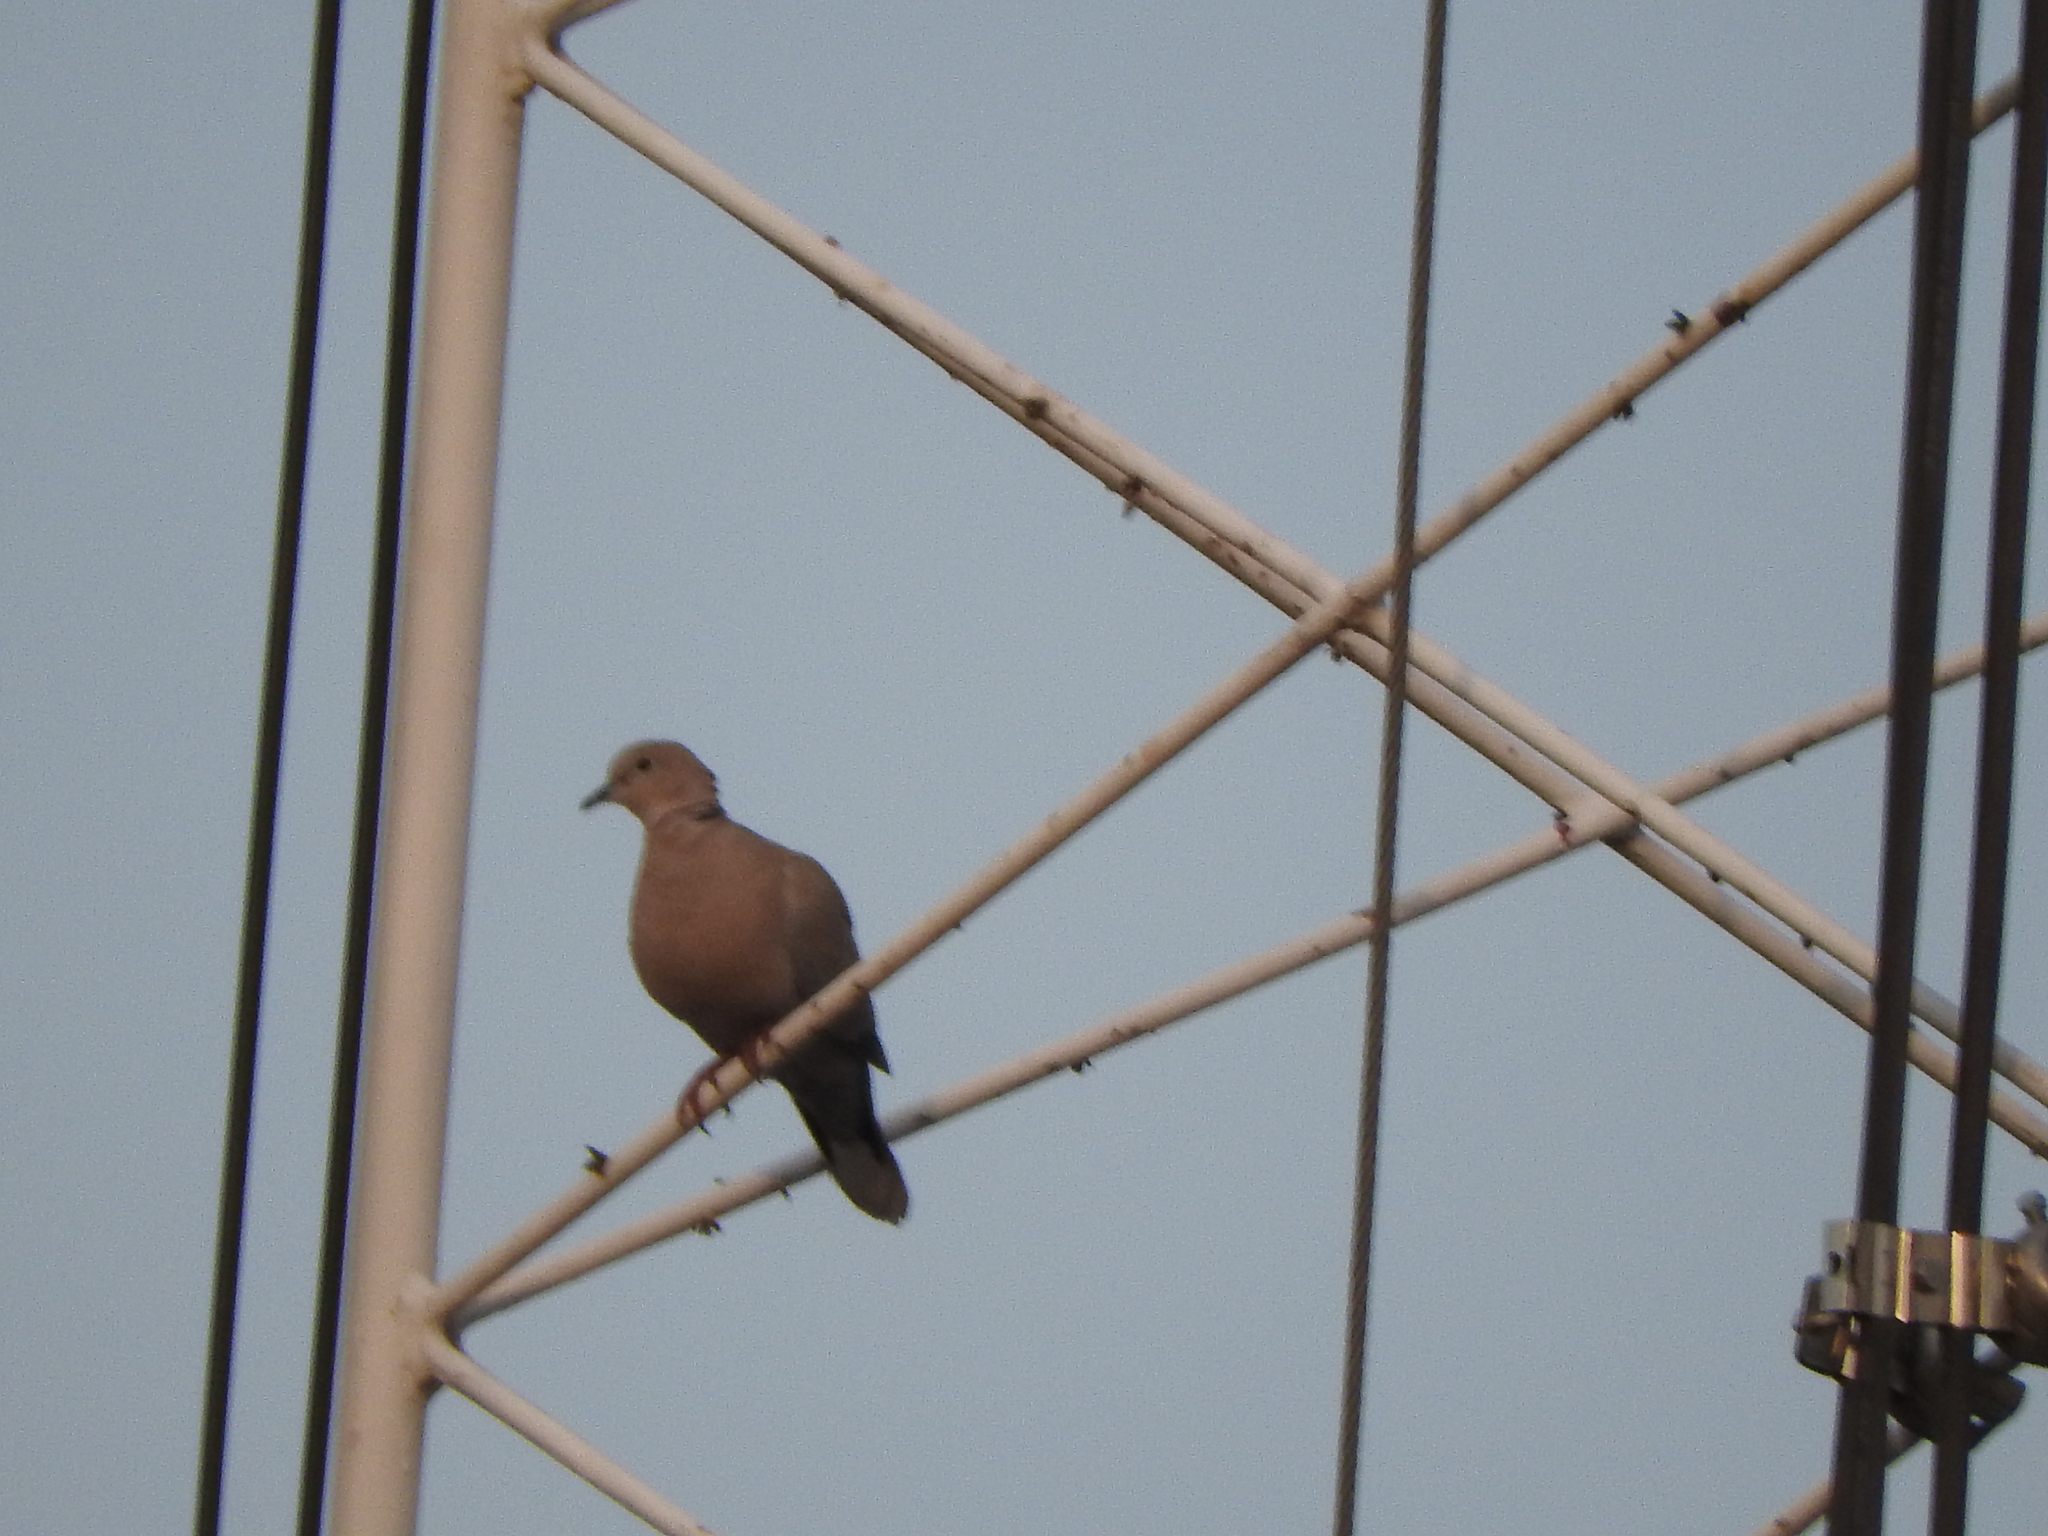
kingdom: Animalia
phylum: Chordata
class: Aves
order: Columbiformes
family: Columbidae
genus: Streptopelia
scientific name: Streptopelia decaocto
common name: Eurasian collared dove
